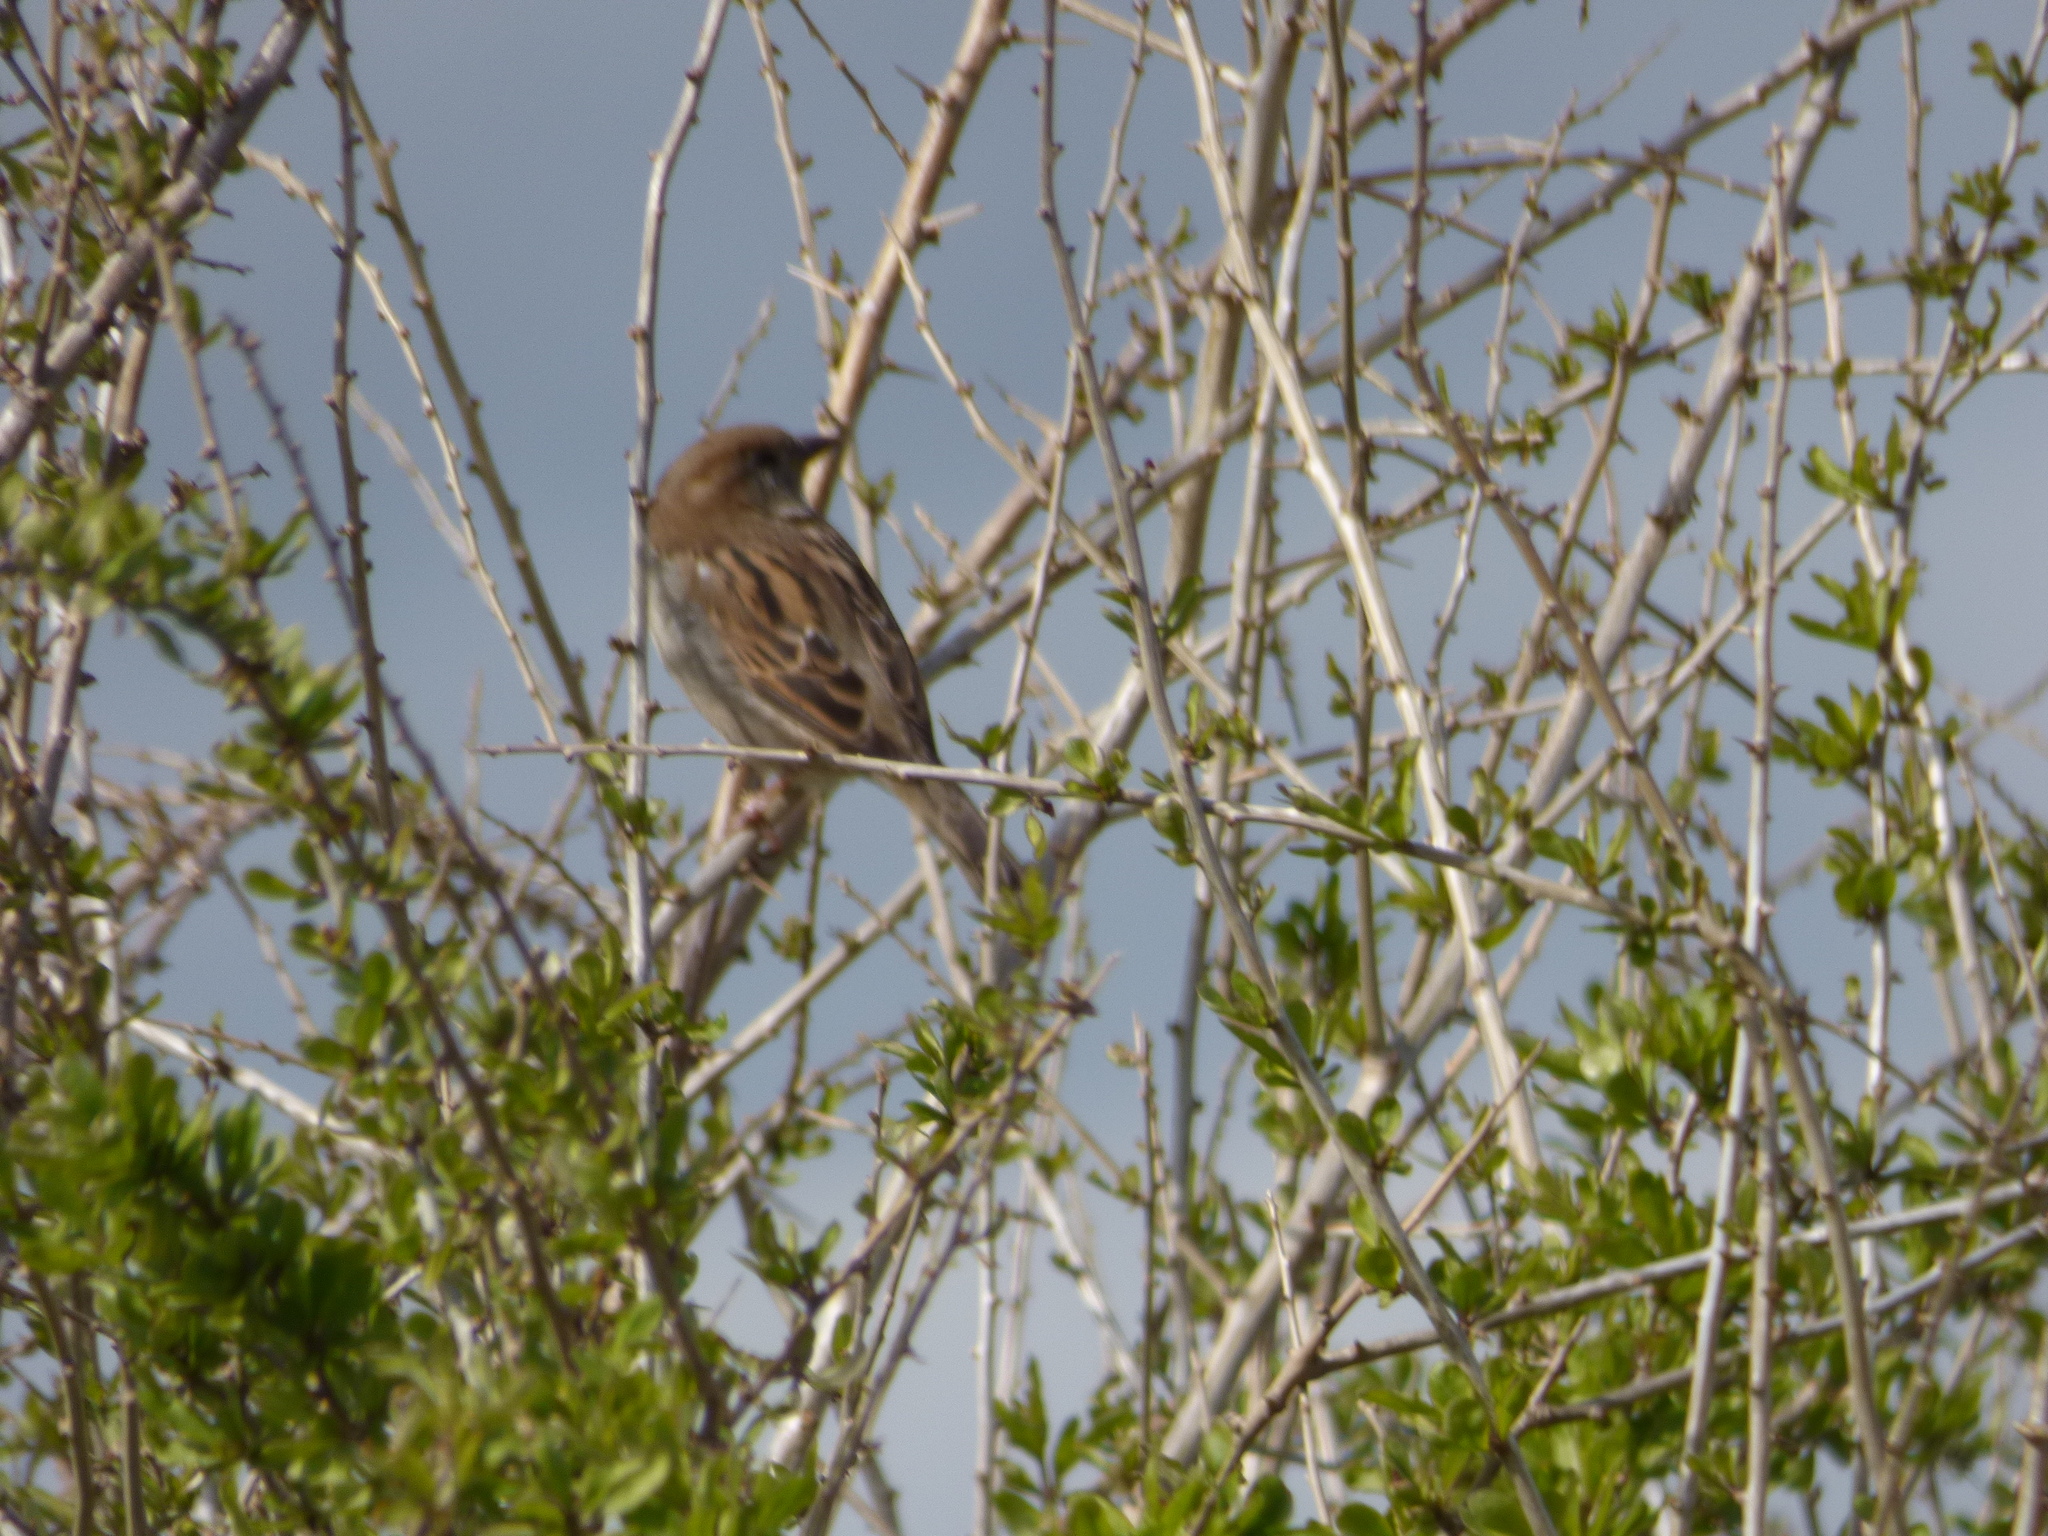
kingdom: Animalia
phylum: Chordata
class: Aves
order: Passeriformes
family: Passeridae
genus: Passer
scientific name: Passer domesticus
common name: House sparrow
